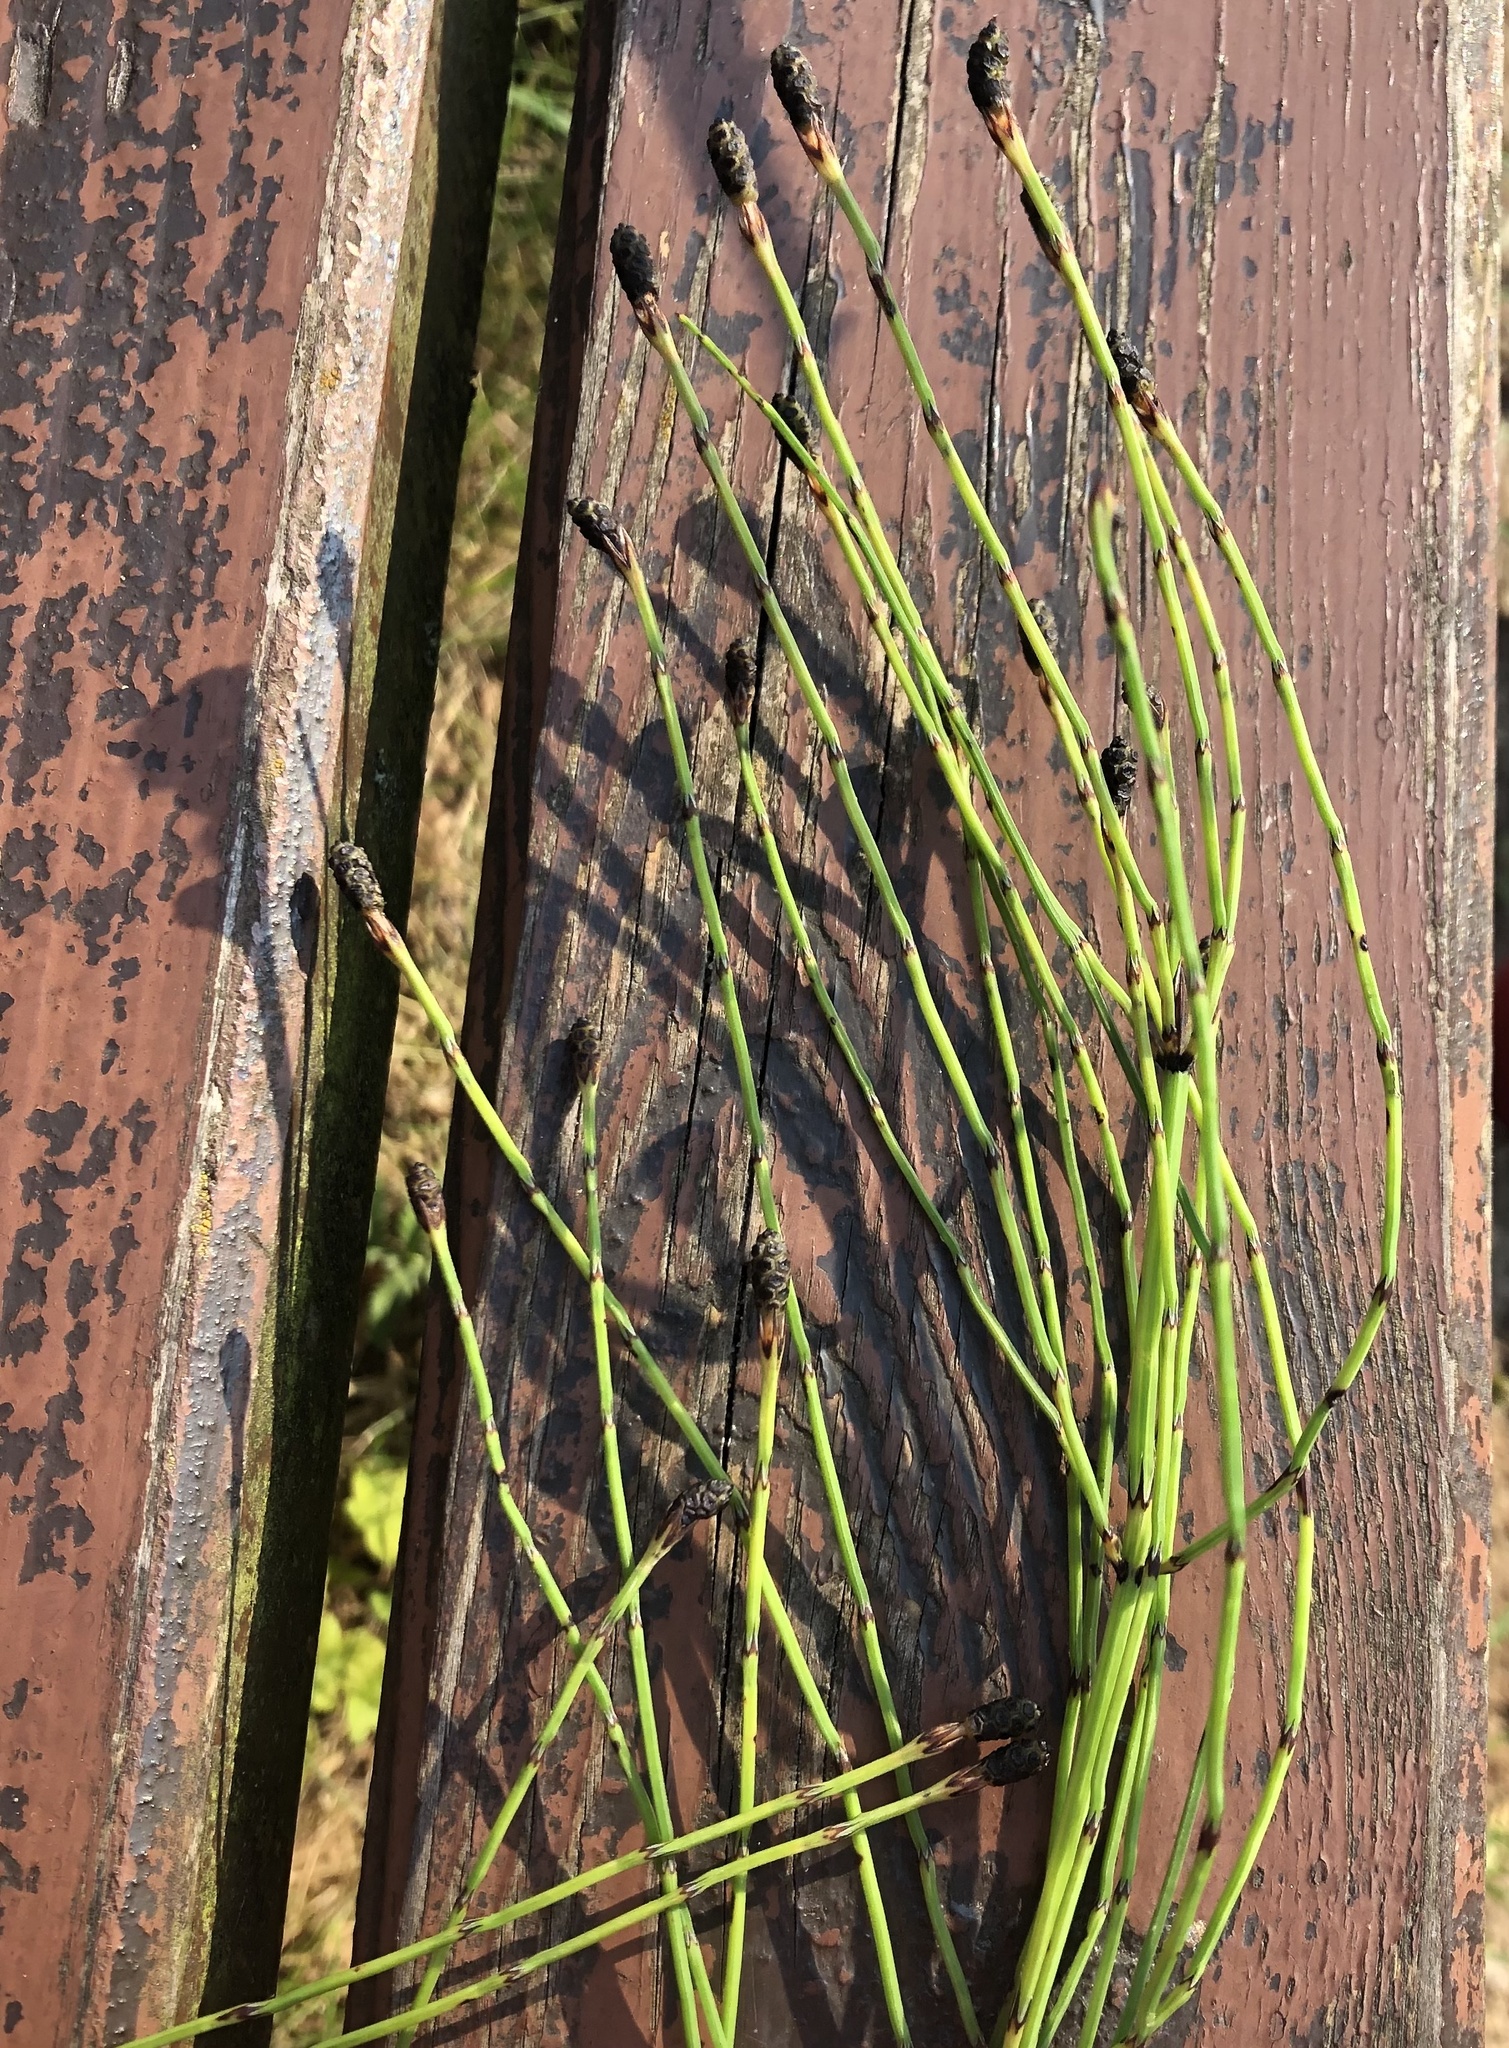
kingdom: Plantae
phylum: Tracheophyta
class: Polypodiopsida
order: Equisetales
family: Equisetaceae
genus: Equisetum
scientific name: Equisetum palustre
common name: Marsh horsetail
